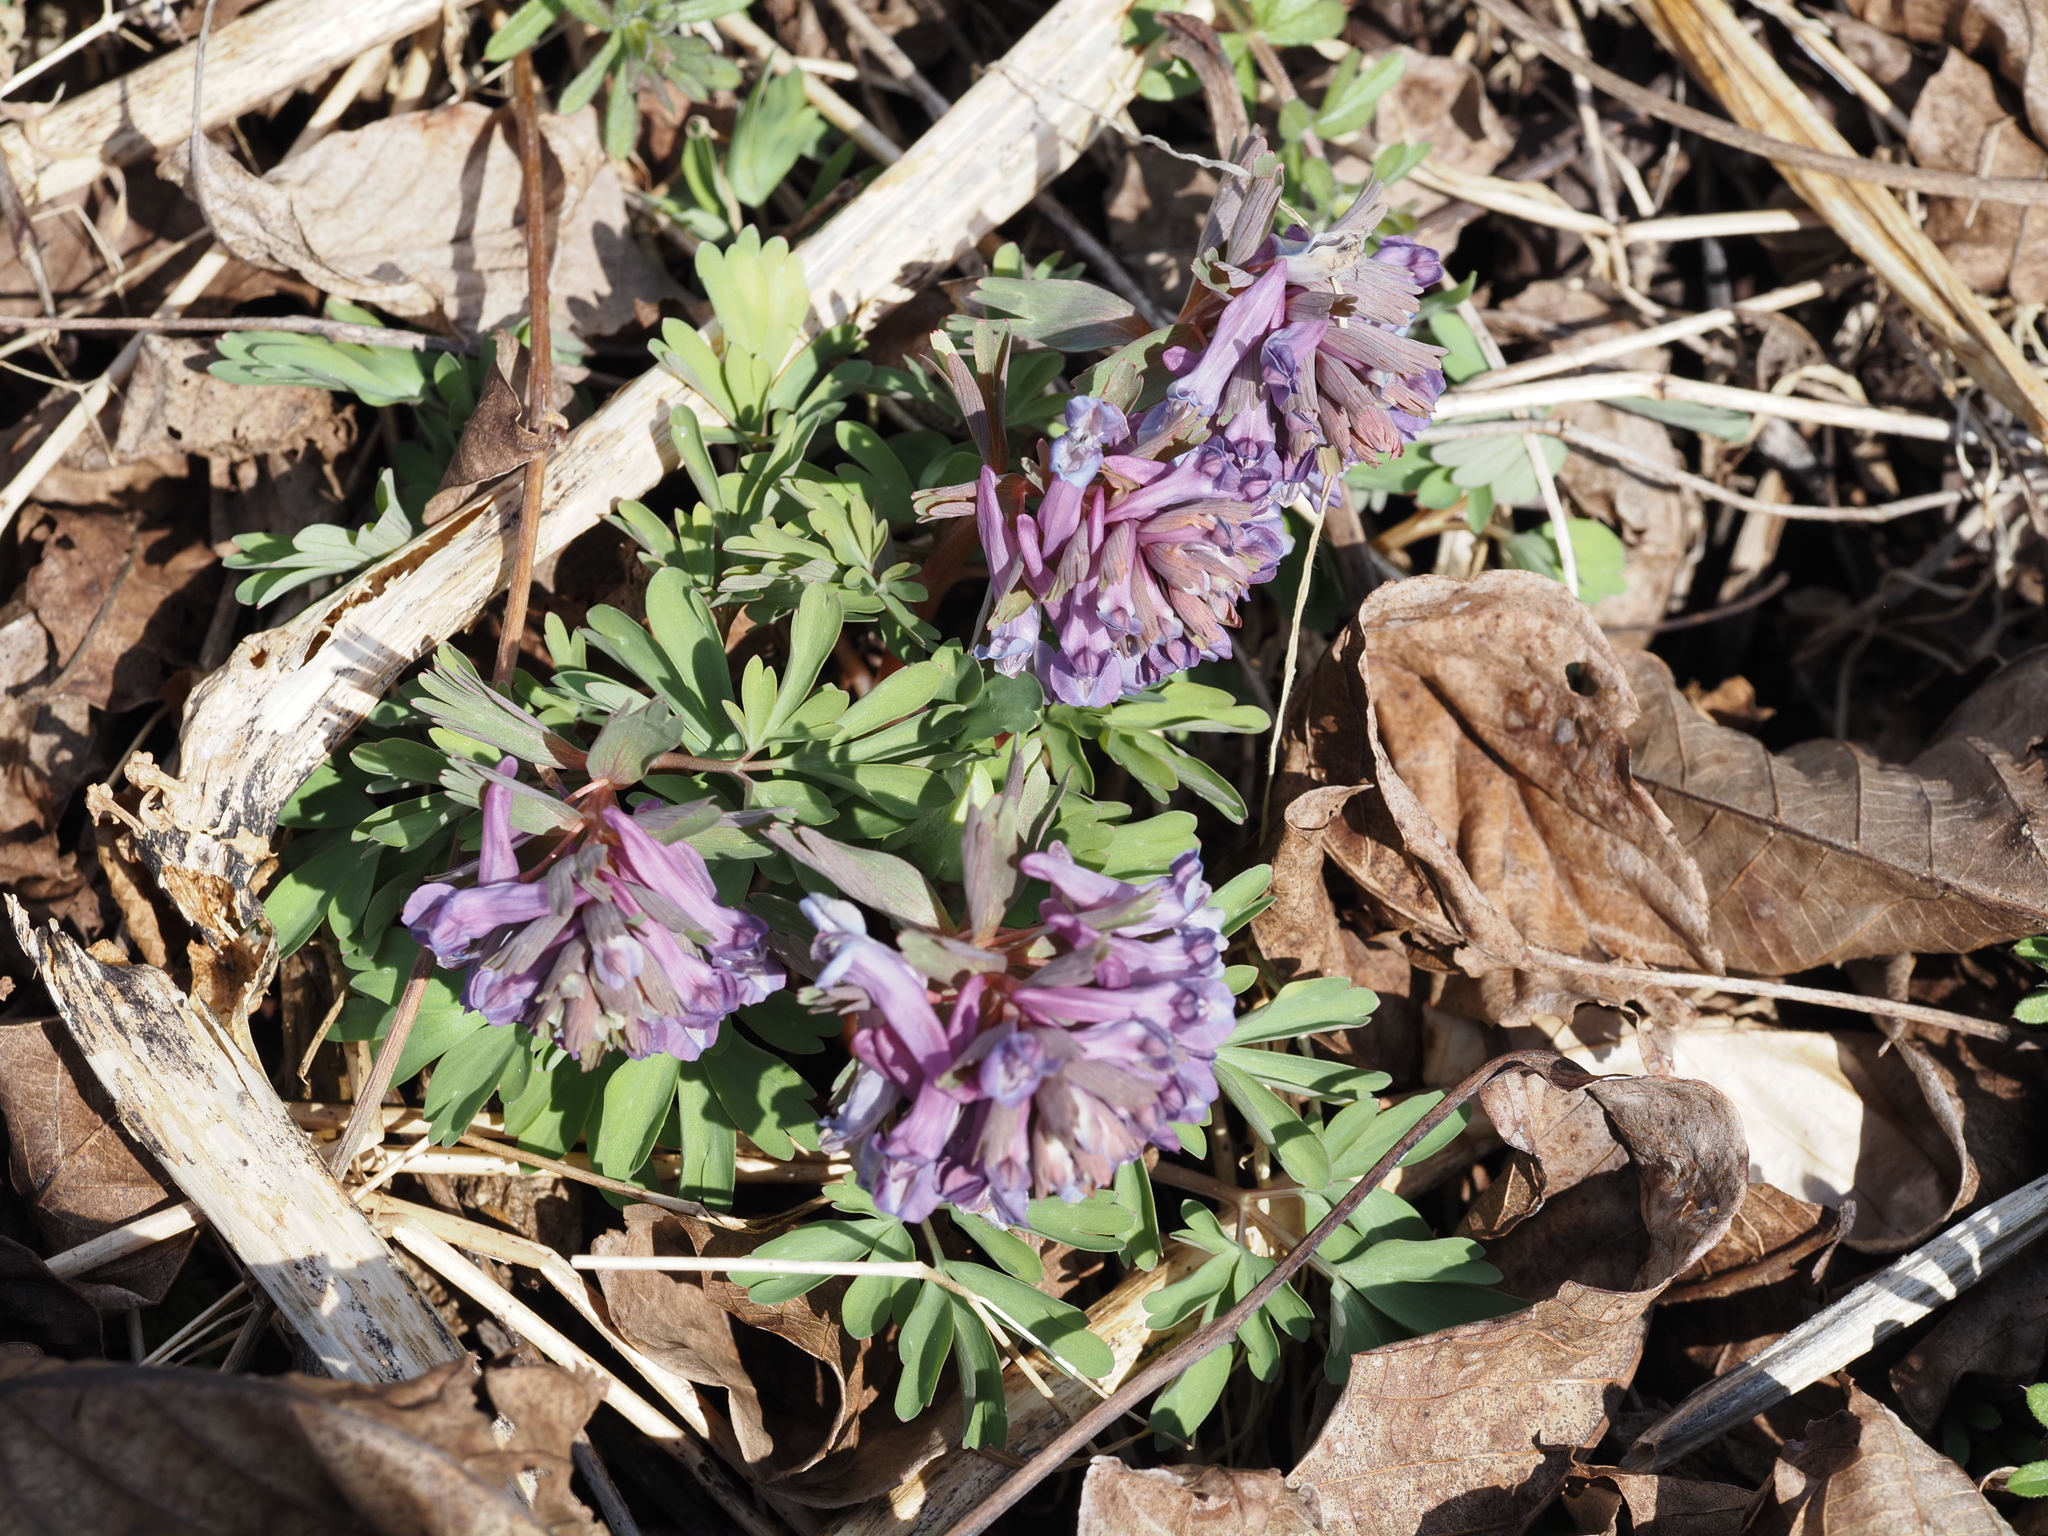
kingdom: Plantae
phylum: Tracheophyta
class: Magnoliopsida
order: Ranunculales
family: Papaveraceae
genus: Corydalis
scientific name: Corydalis solida
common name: Bird-in-a-bush
